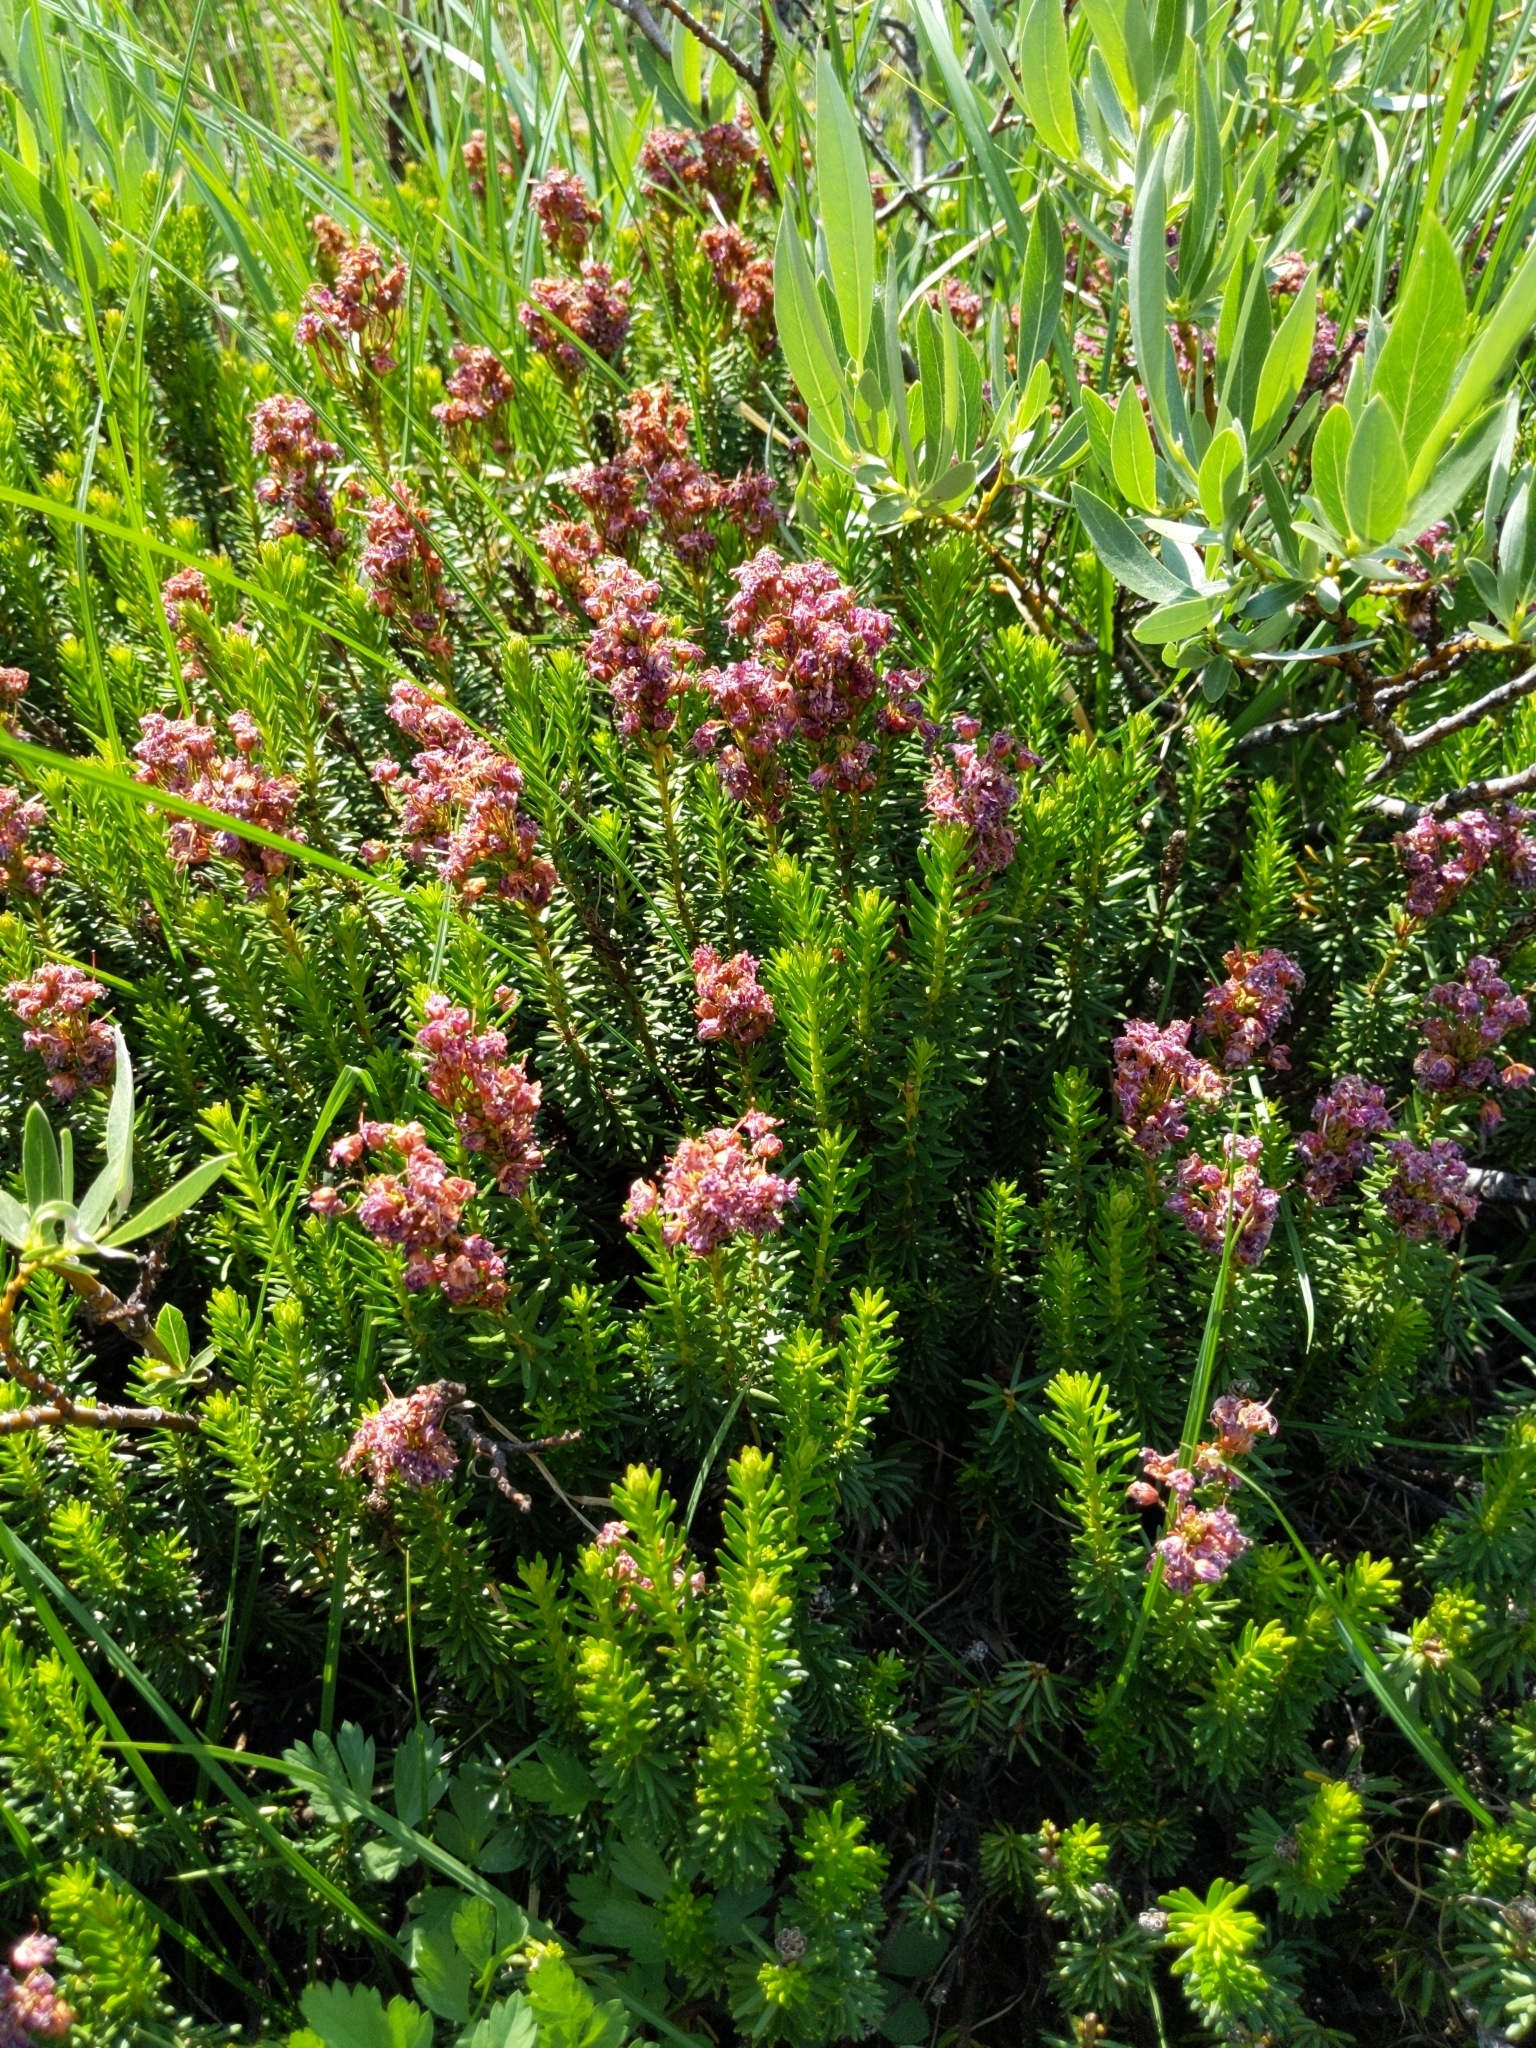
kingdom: Plantae
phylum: Tracheophyta
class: Magnoliopsida
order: Ericales
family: Ericaceae
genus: Phyllodoce
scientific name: Phyllodoce breweri
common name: Brewer's mountain-heather
